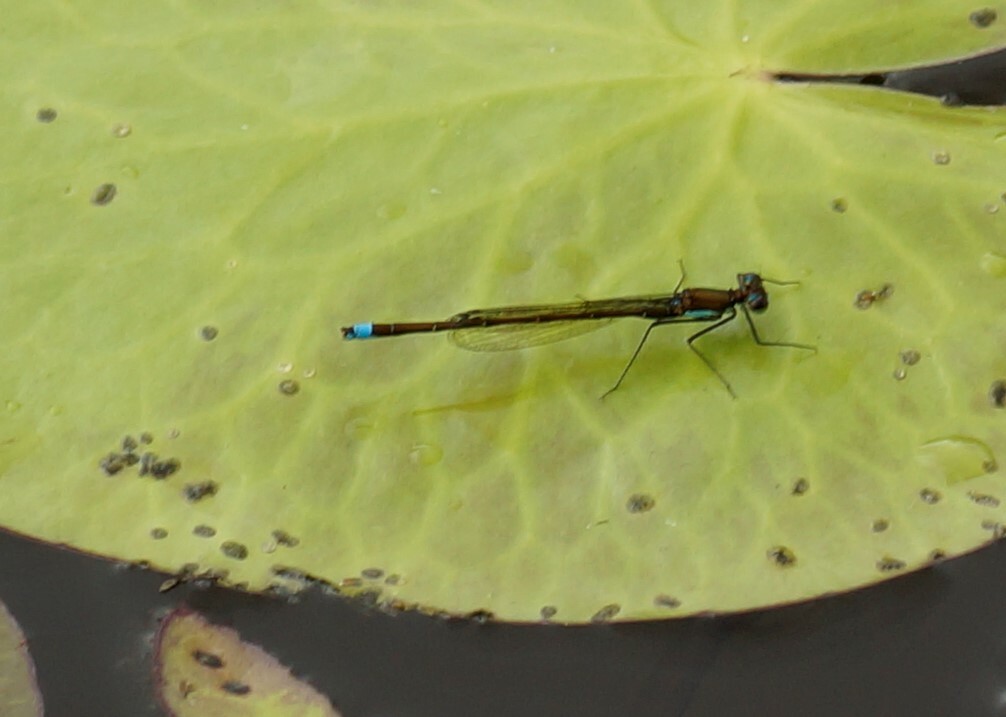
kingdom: Animalia
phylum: Arthropoda
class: Insecta
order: Odonata
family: Coenagrionidae
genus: Austrocnemis
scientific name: Austrocnemis splendida
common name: Splendid longlegs
